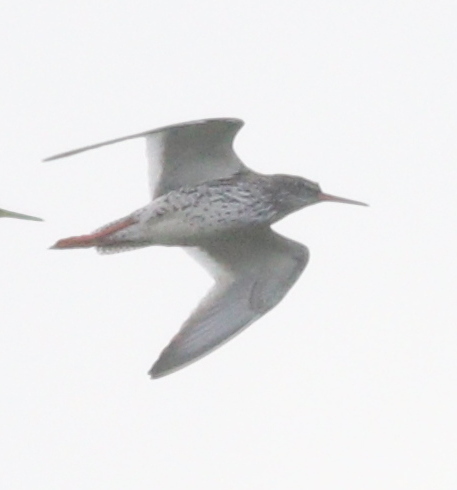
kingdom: Animalia
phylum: Chordata
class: Aves
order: Charadriiformes
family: Scolopacidae
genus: Tringa
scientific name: Tringa totanus
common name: Common redshank
